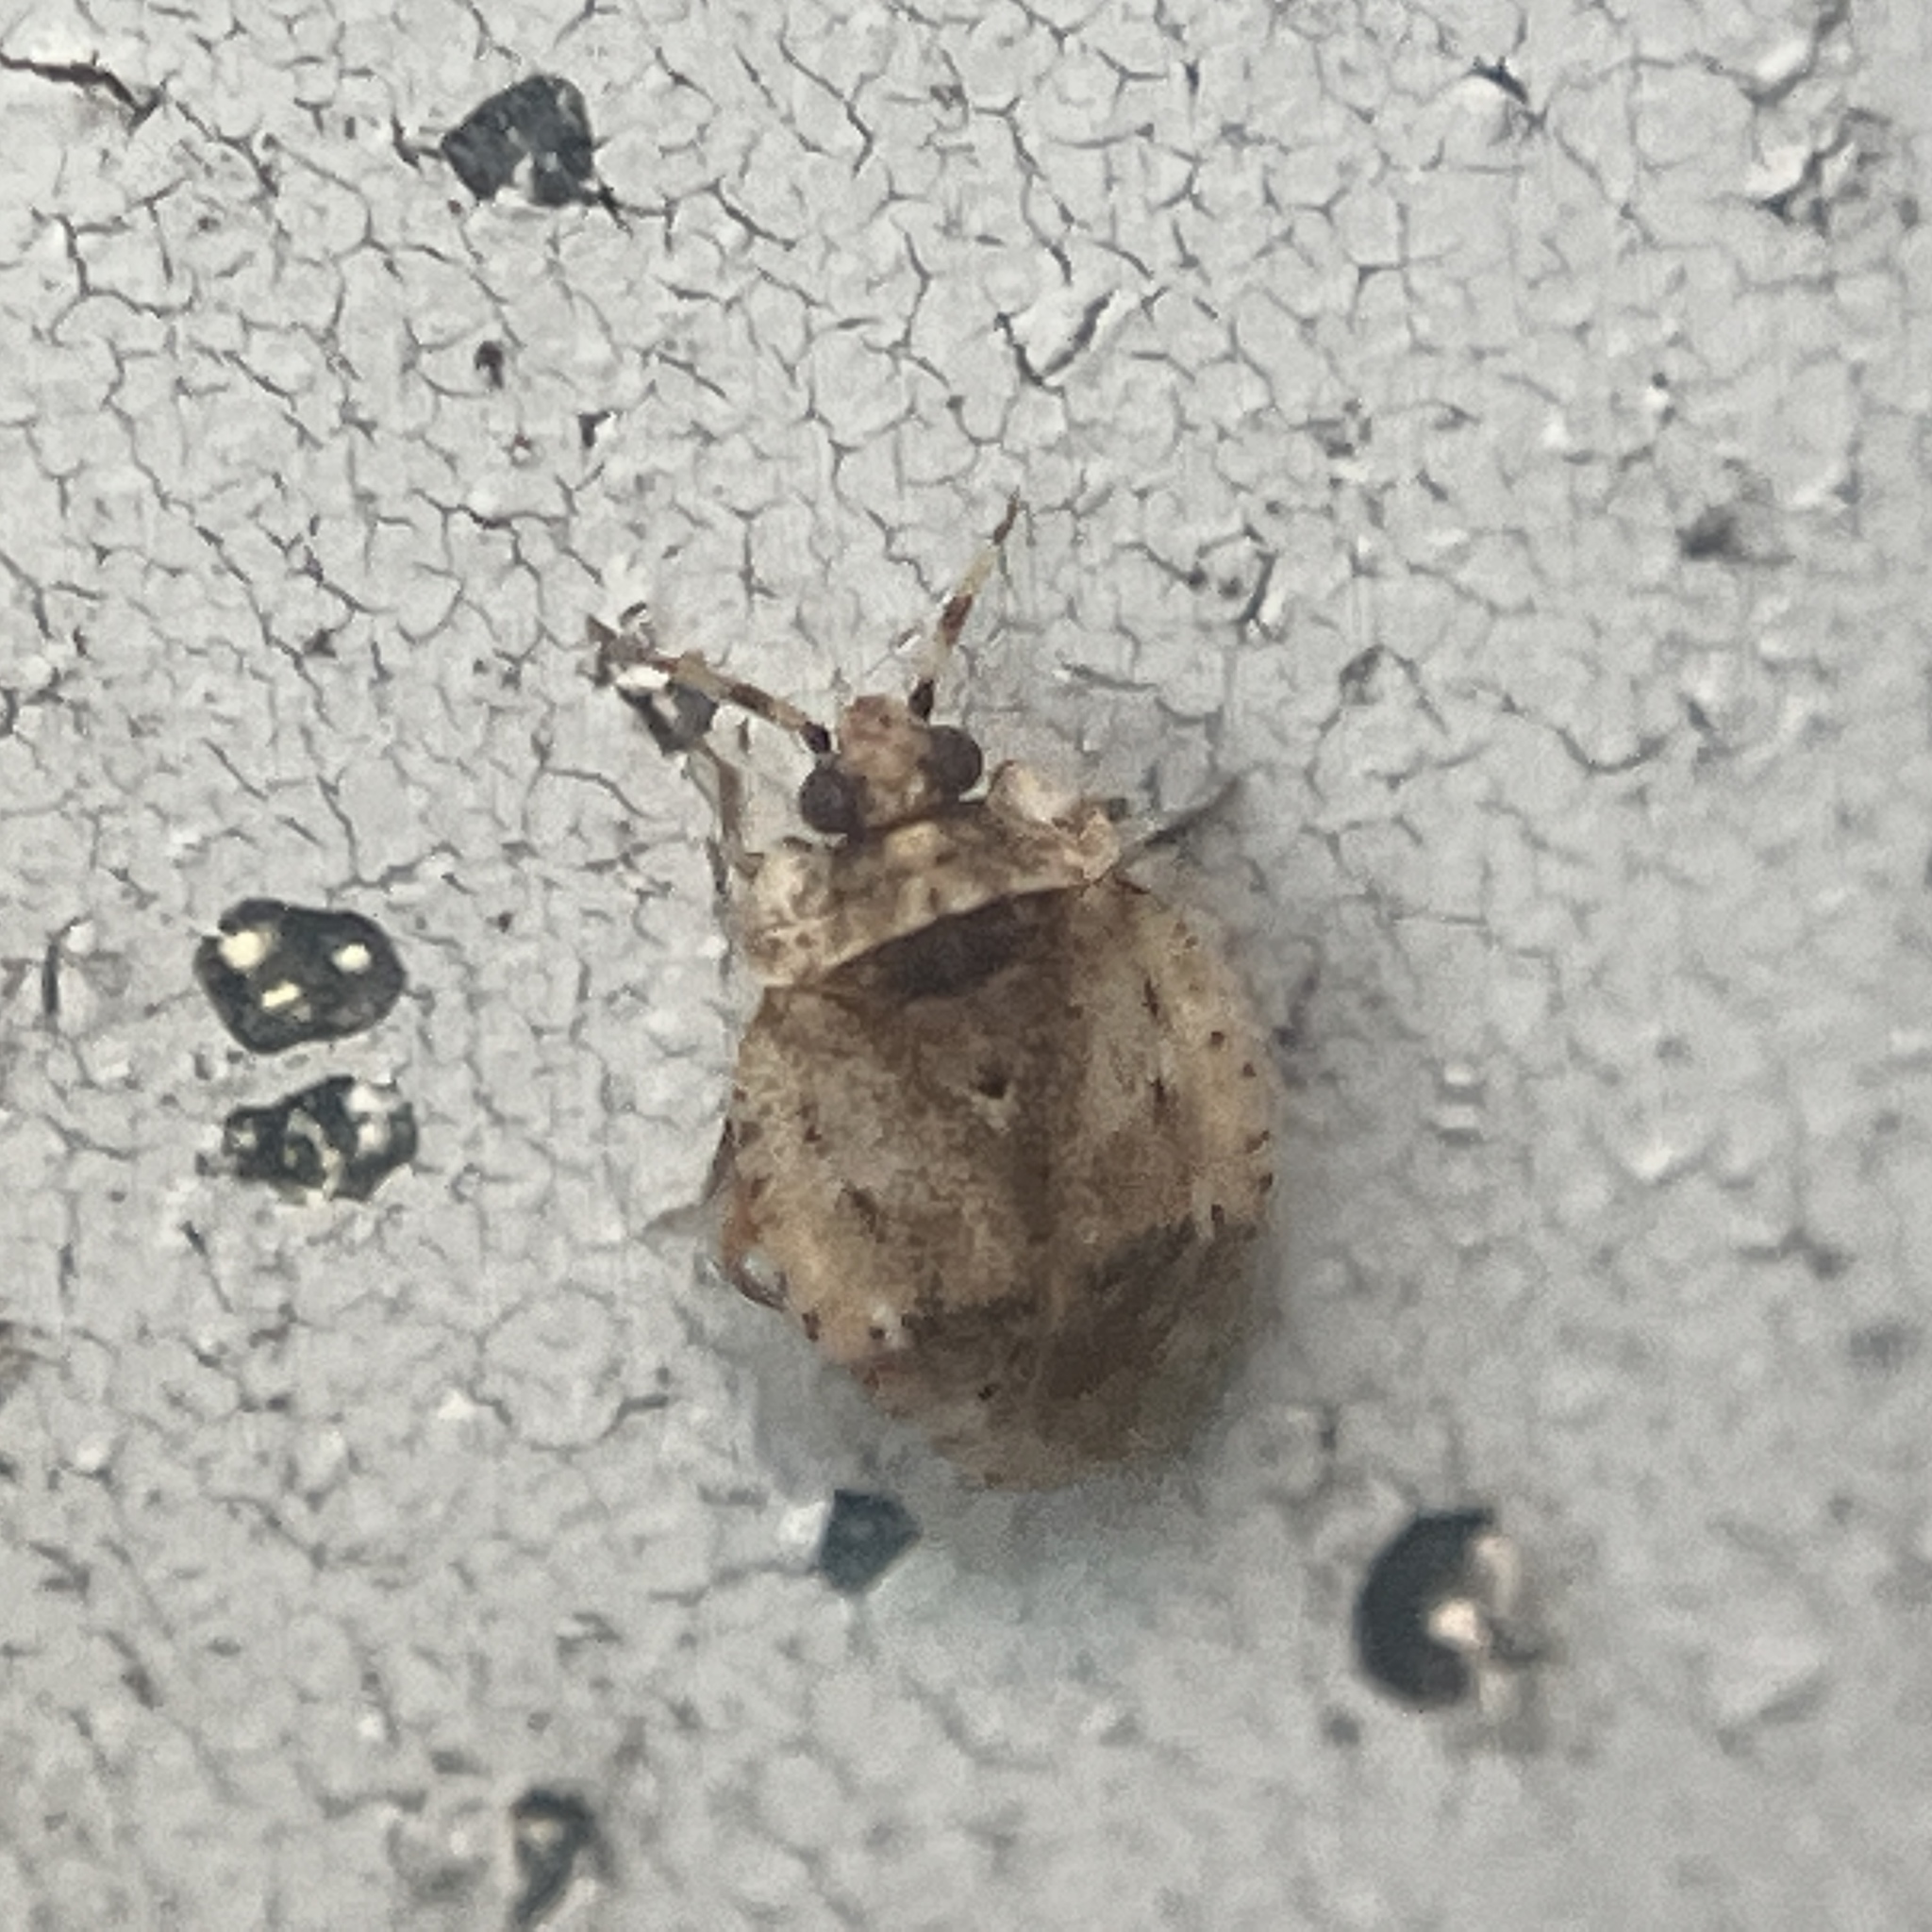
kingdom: Animalia
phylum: Arthropoda
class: Insecta
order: Hemiptera
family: Miridae
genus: Diphleps
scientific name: Diphleps unica
